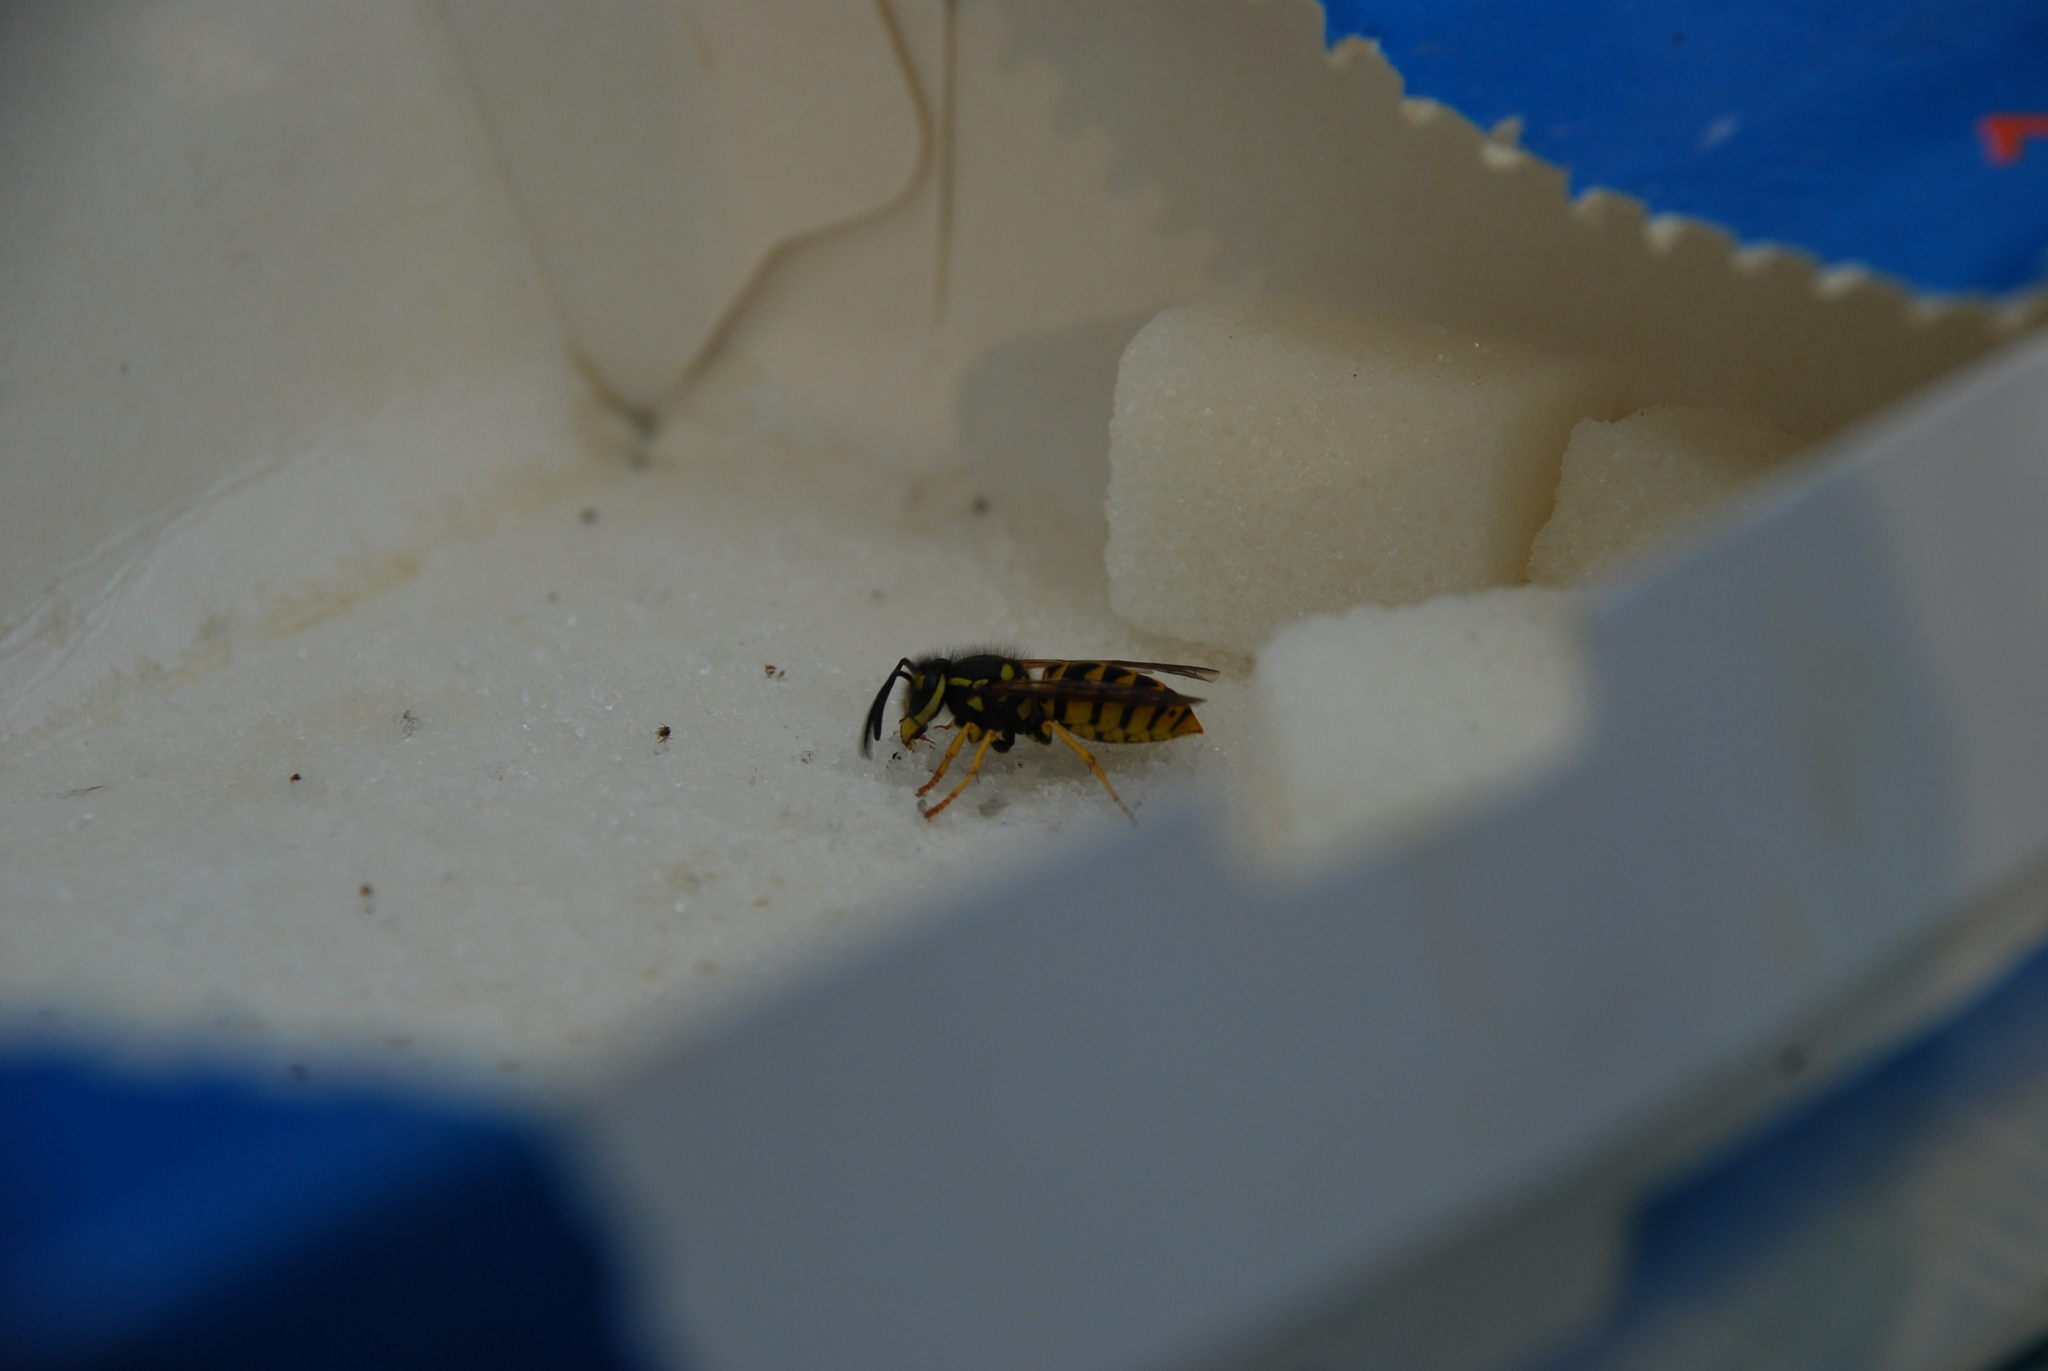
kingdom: Animalia
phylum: Arthropoda
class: Insecta
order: Hymenoptera
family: Vespidae
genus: Vespula
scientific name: Vespula germanica
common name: German wasp
